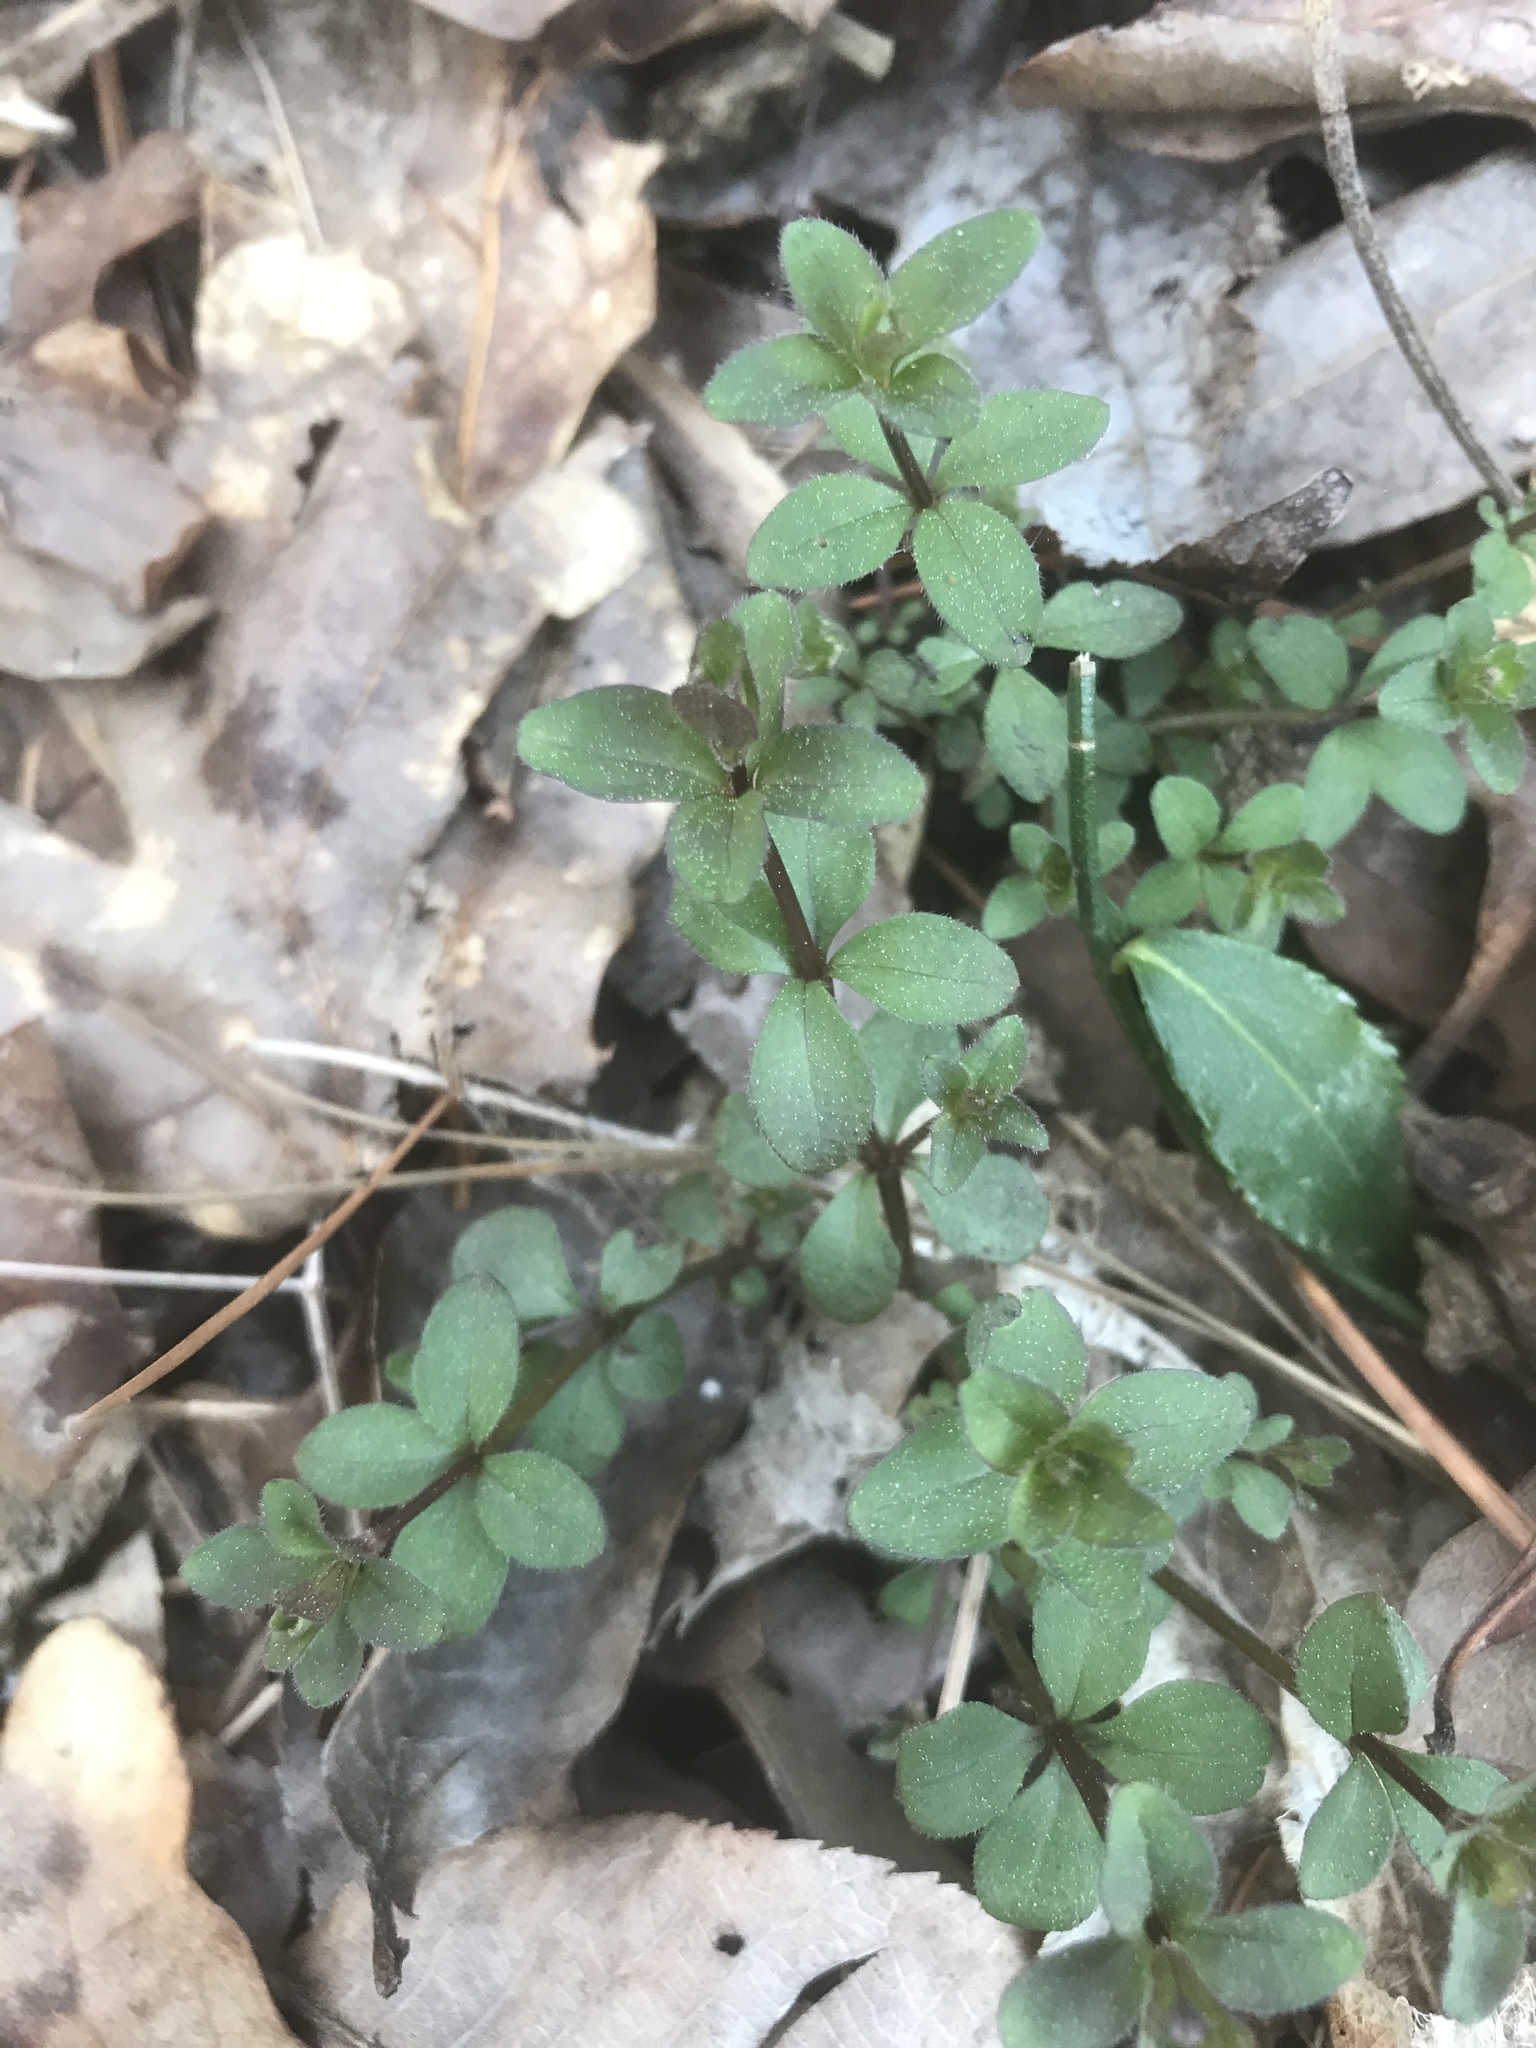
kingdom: Plantae
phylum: Tracheophyta
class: Magnoliopsida
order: Gentianales
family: Rubiaceae
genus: Galium
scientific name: Galium circaezans
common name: Forest bedstraw
